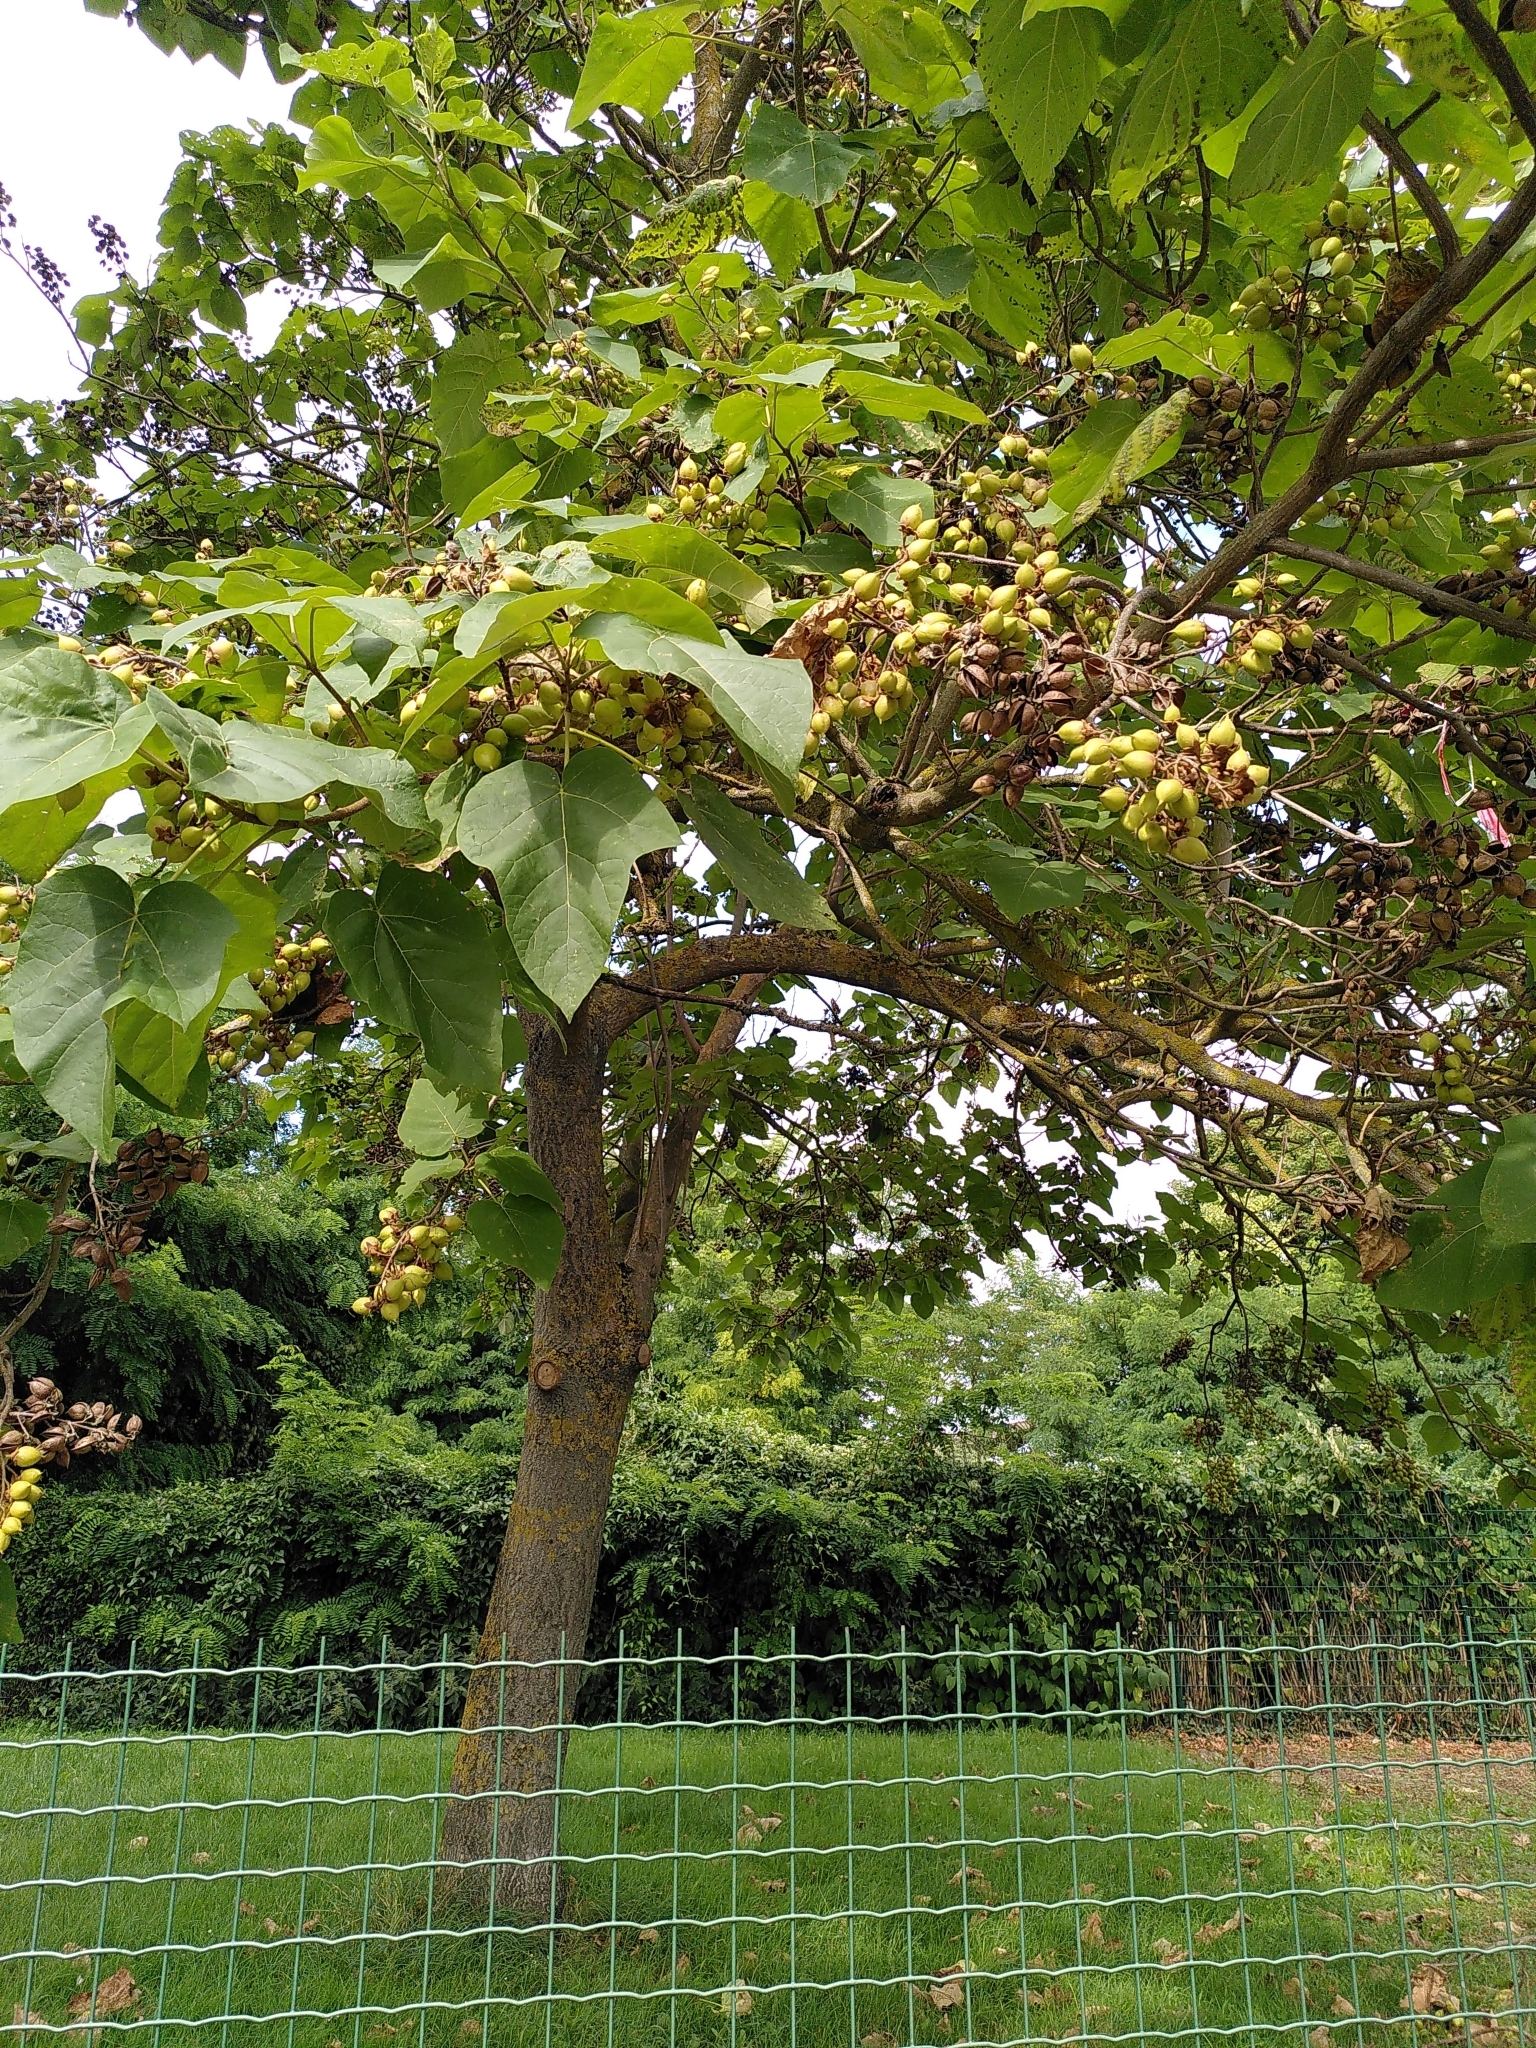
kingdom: Plantae
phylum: Tracheophyta
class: Magnoliopsida
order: Lamiales
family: Paulowniaceae
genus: Paulownia
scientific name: Paulownia tomentosa
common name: Foxglove-tree
